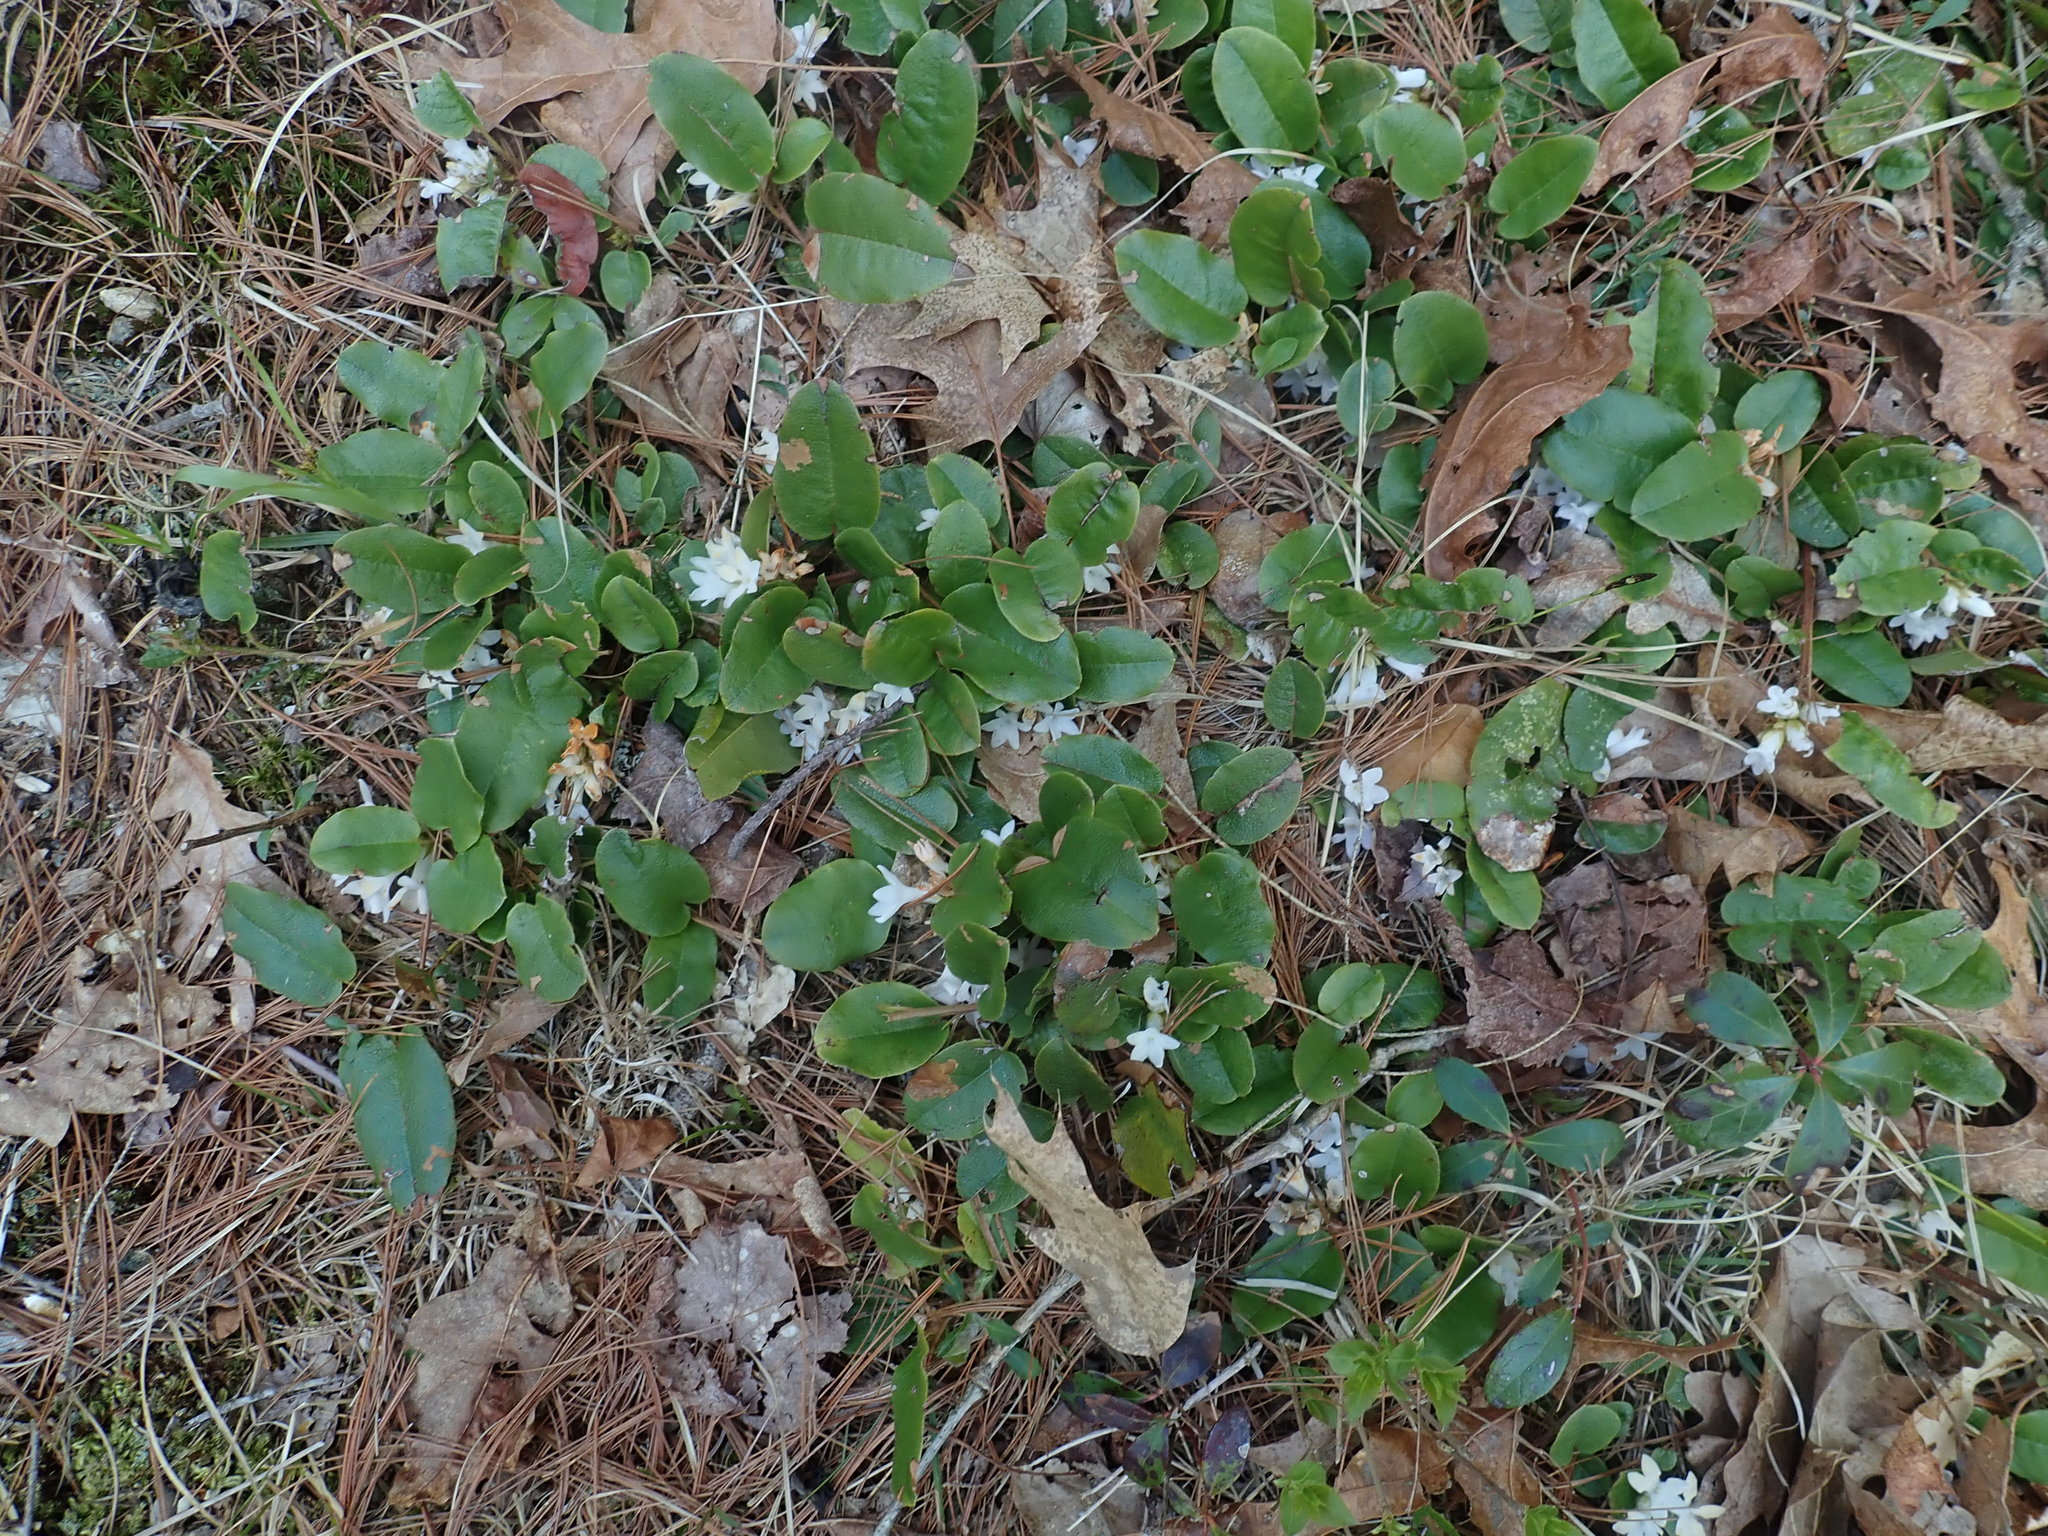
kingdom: Plantae
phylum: Tracheophyta
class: Magnoliopsida
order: Ericales
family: Ericaceae
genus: Epigaea
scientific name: Epigaea repens
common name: Gravelroot
